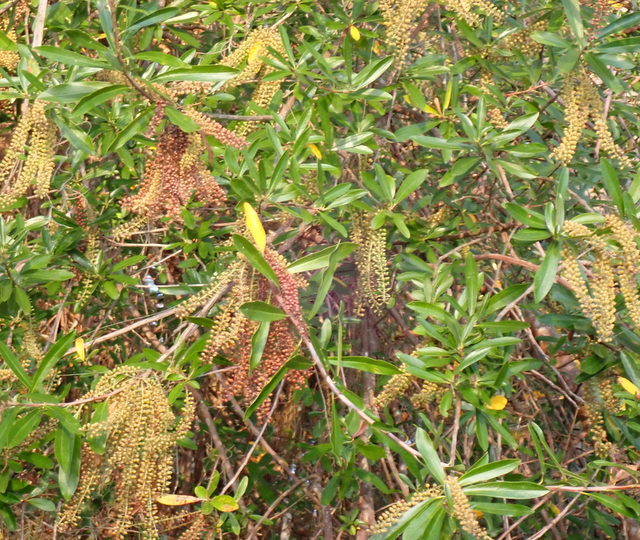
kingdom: Plantae
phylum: Tracheophyta
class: Magnoliopsida
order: Ericales
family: Cyrillaceae
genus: Cyrilla
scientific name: Cyrilla racemiflora
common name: Black titi
